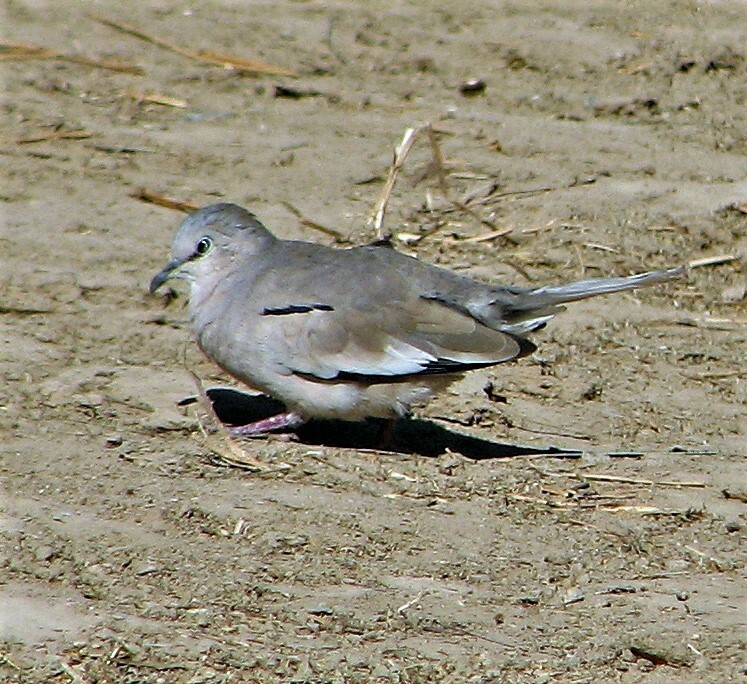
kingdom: Animalia
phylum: Chordata
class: Aves
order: Columbiformes
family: Columbidae
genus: Columbina
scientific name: Columbina picui
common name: Picui ground dove
